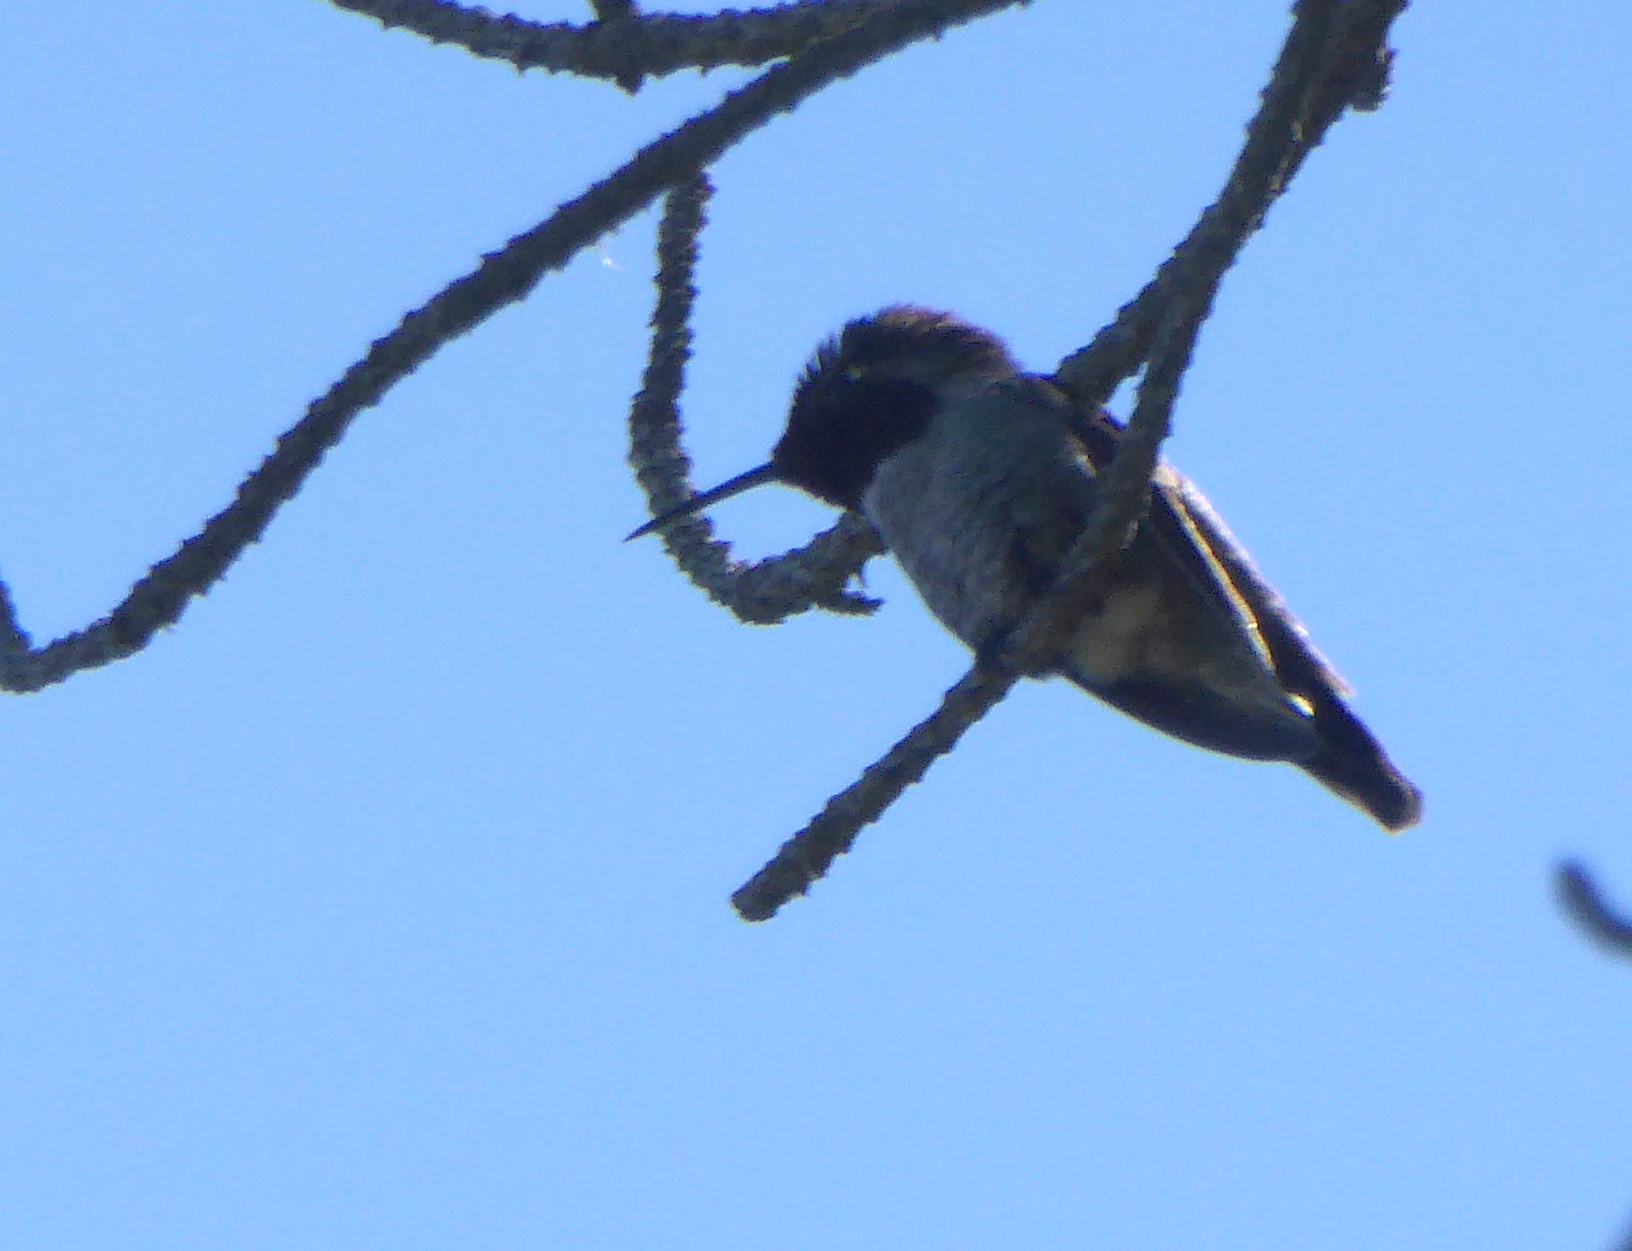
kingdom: Animalia
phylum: Chordata
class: Aves
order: Apodiformes
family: Trochilidae
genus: Calypte
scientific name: Calypte anna
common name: Anna's hummingbird
